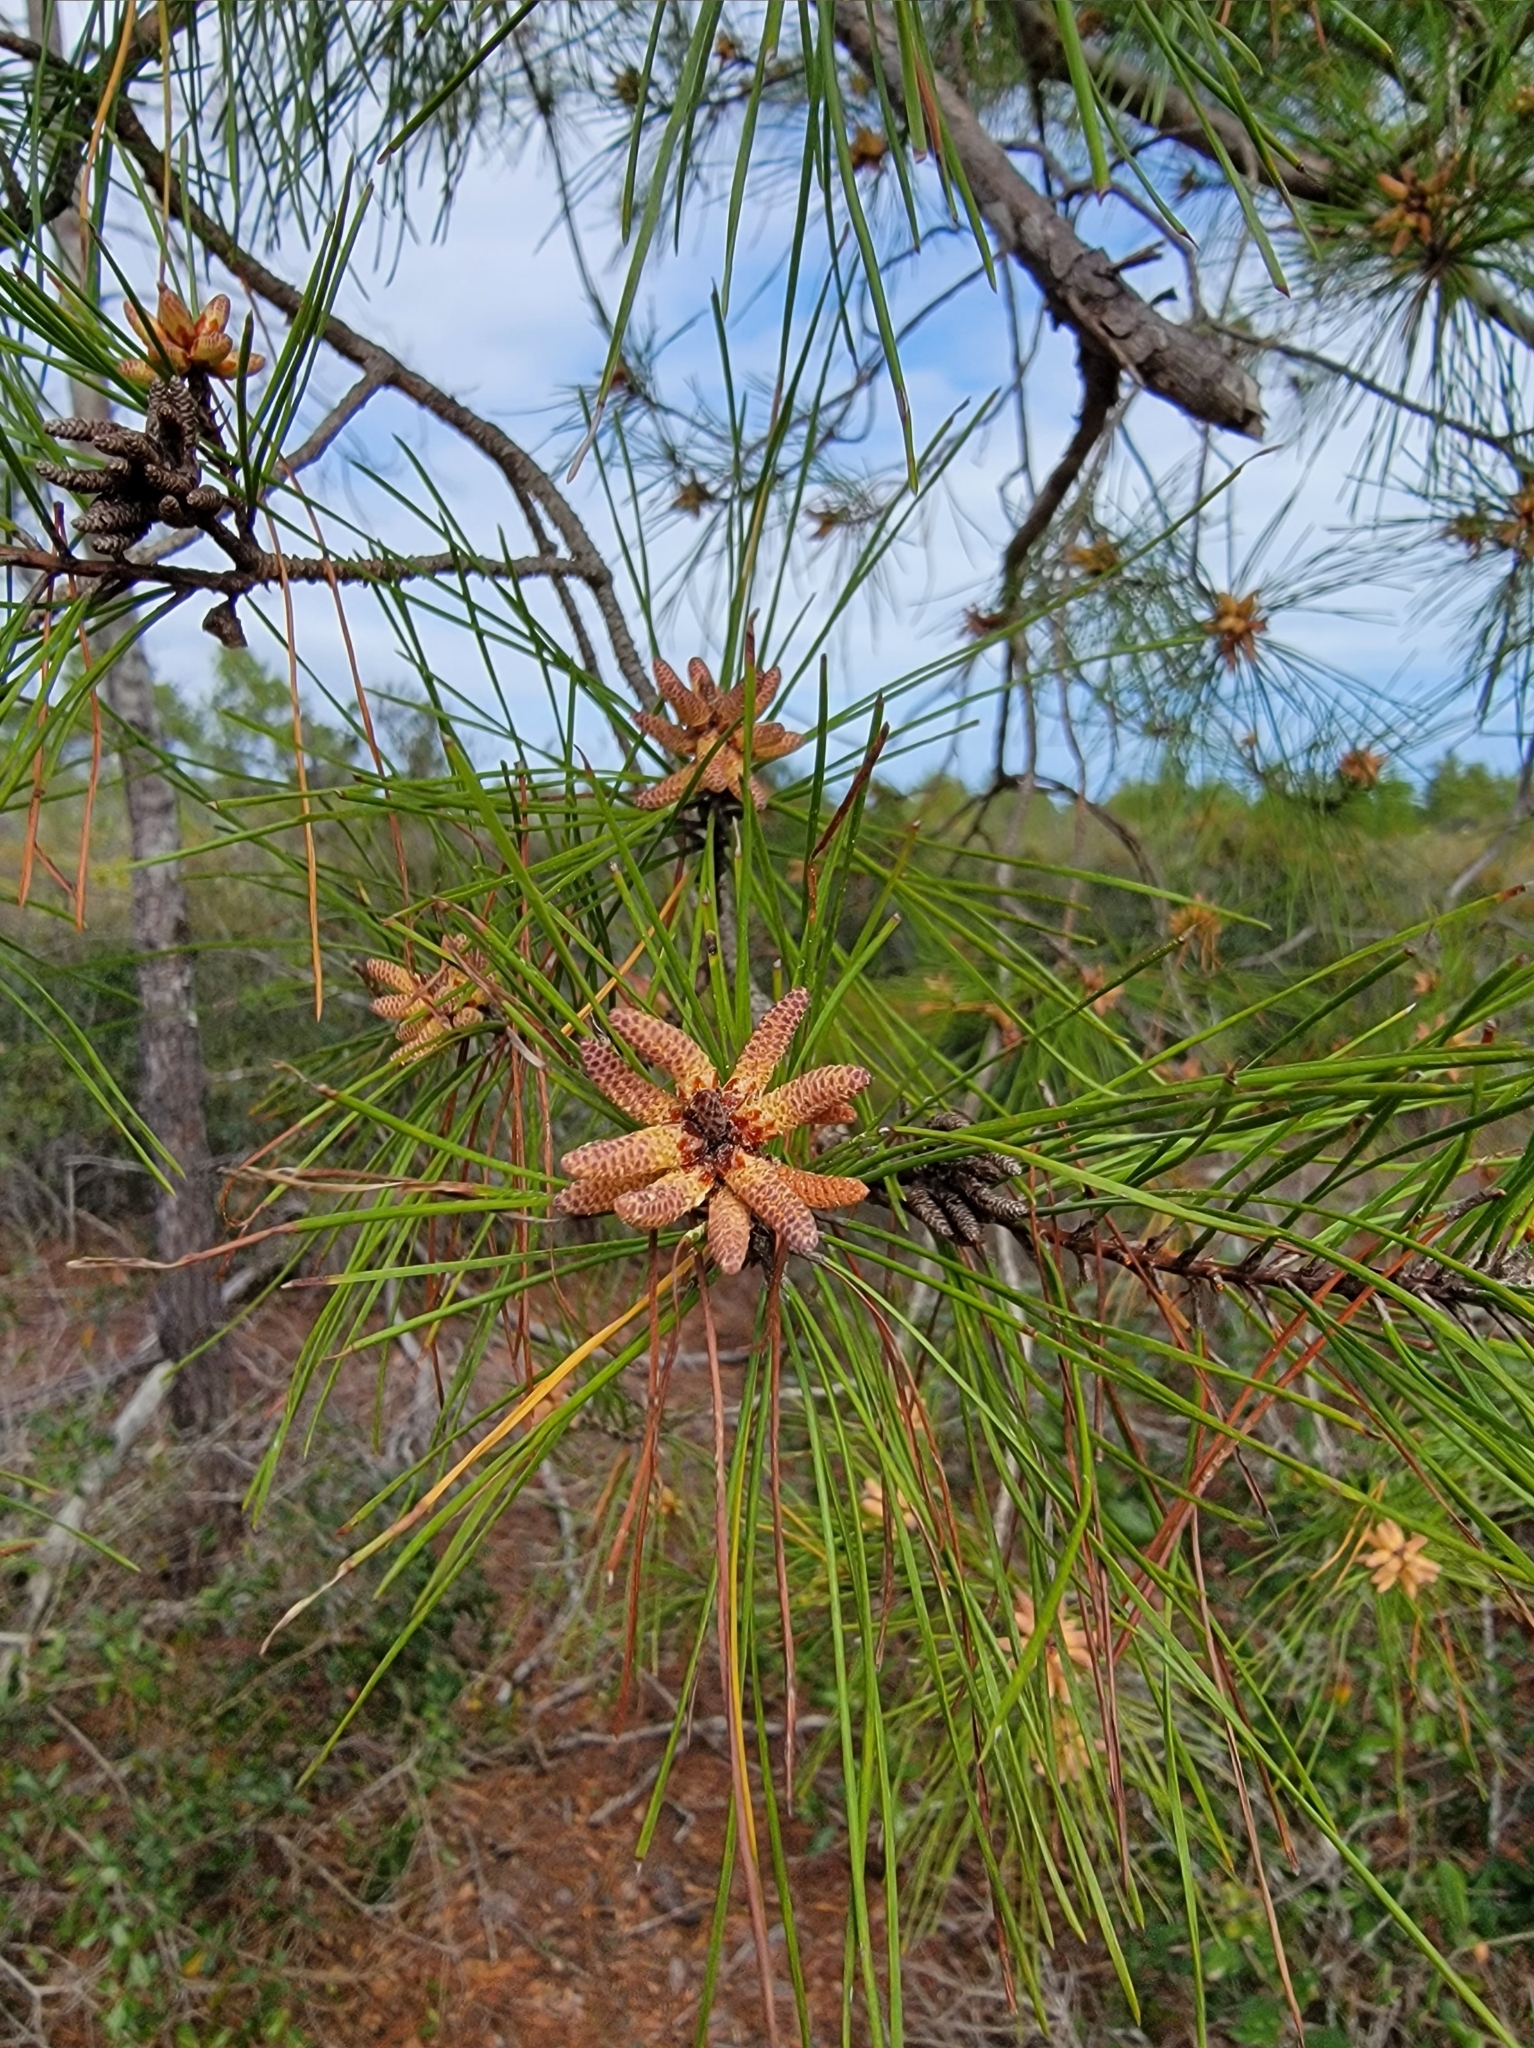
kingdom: Plantae
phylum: Tracheophyta
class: Pinopsida
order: Pinales
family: Pinaceae
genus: Pinus
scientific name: Pinus clausa
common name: Sand pine
